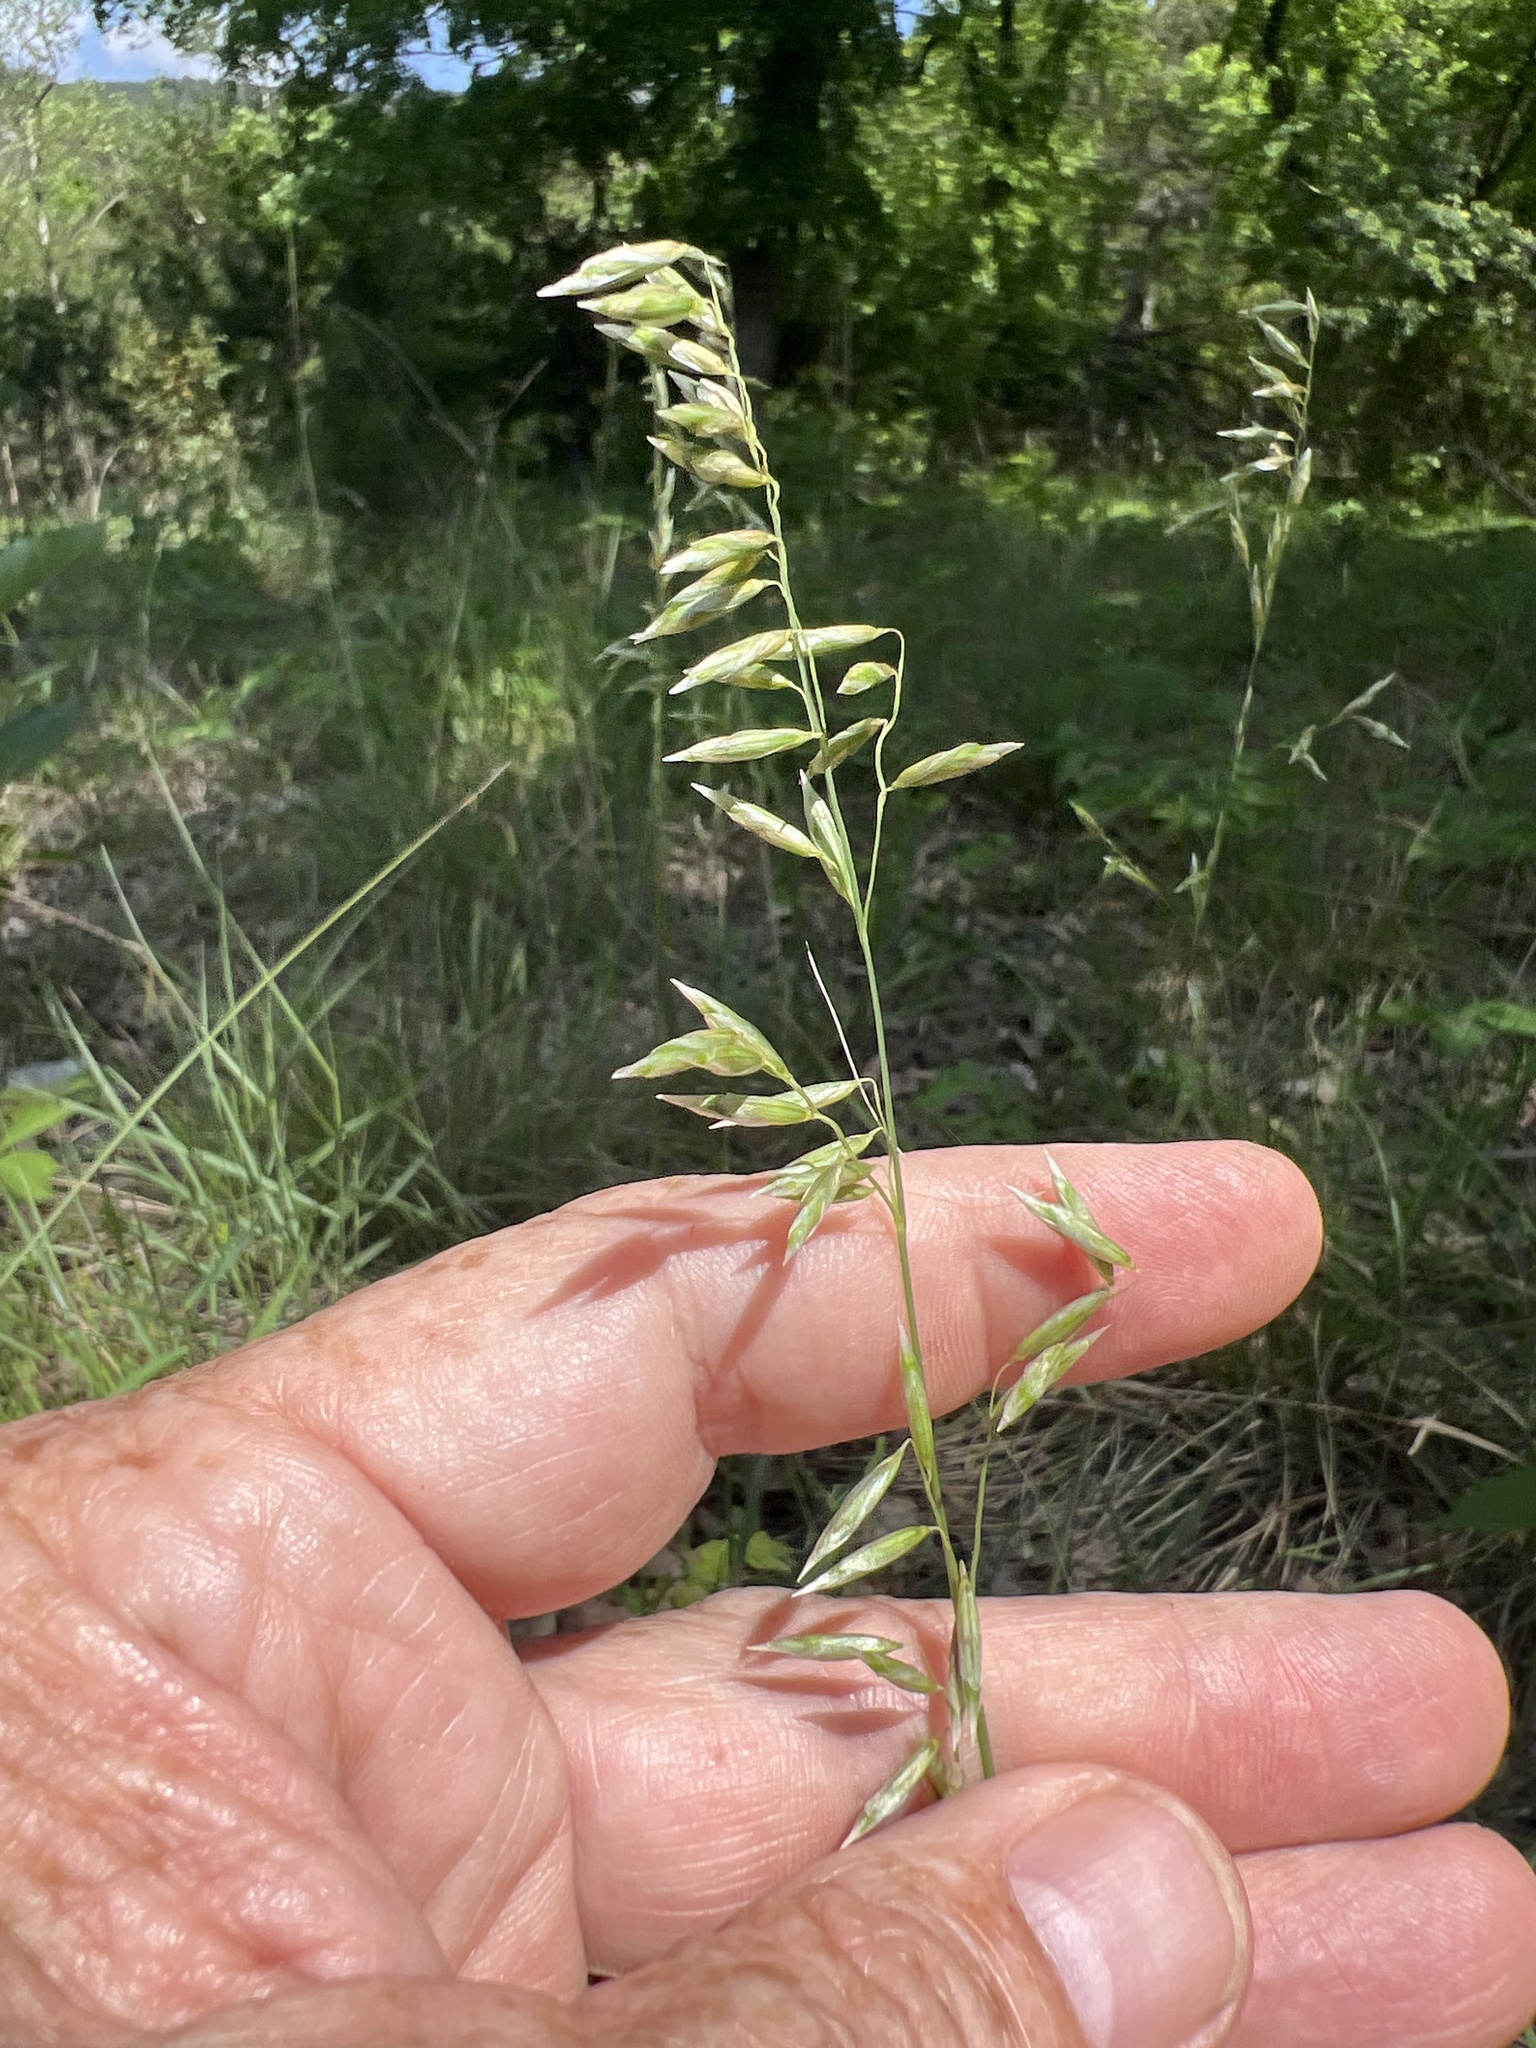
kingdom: Plantae
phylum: Tracheophyta
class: Liliopsida
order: Poales
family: Poaceae
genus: Melica
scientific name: Melica nitens
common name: Three-flower melic
